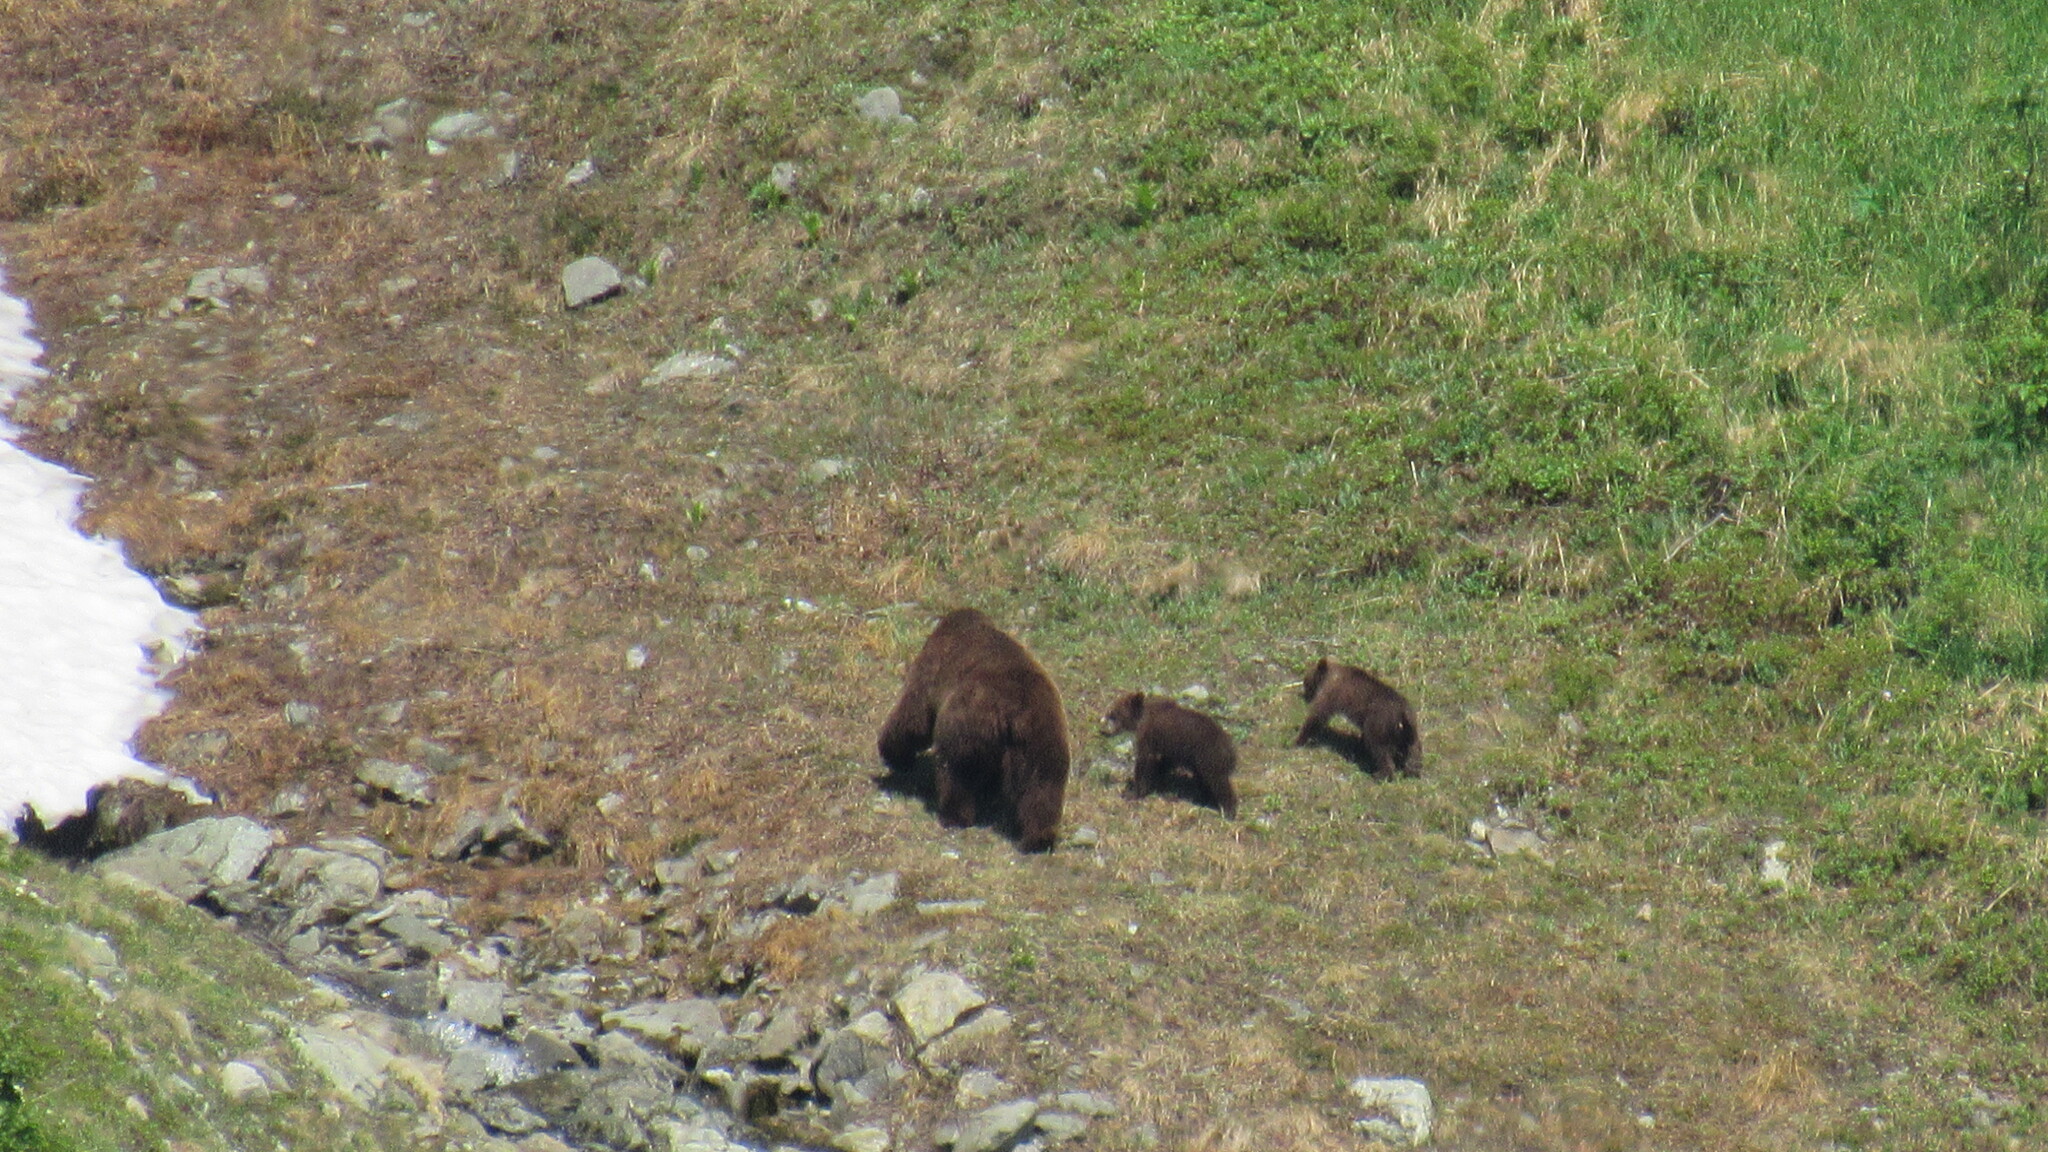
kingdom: Animalia
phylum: Chordata
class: Mammalia
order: Carnivora
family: Ursidae
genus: Ursus
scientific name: Ursus arctos
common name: Brown bear
